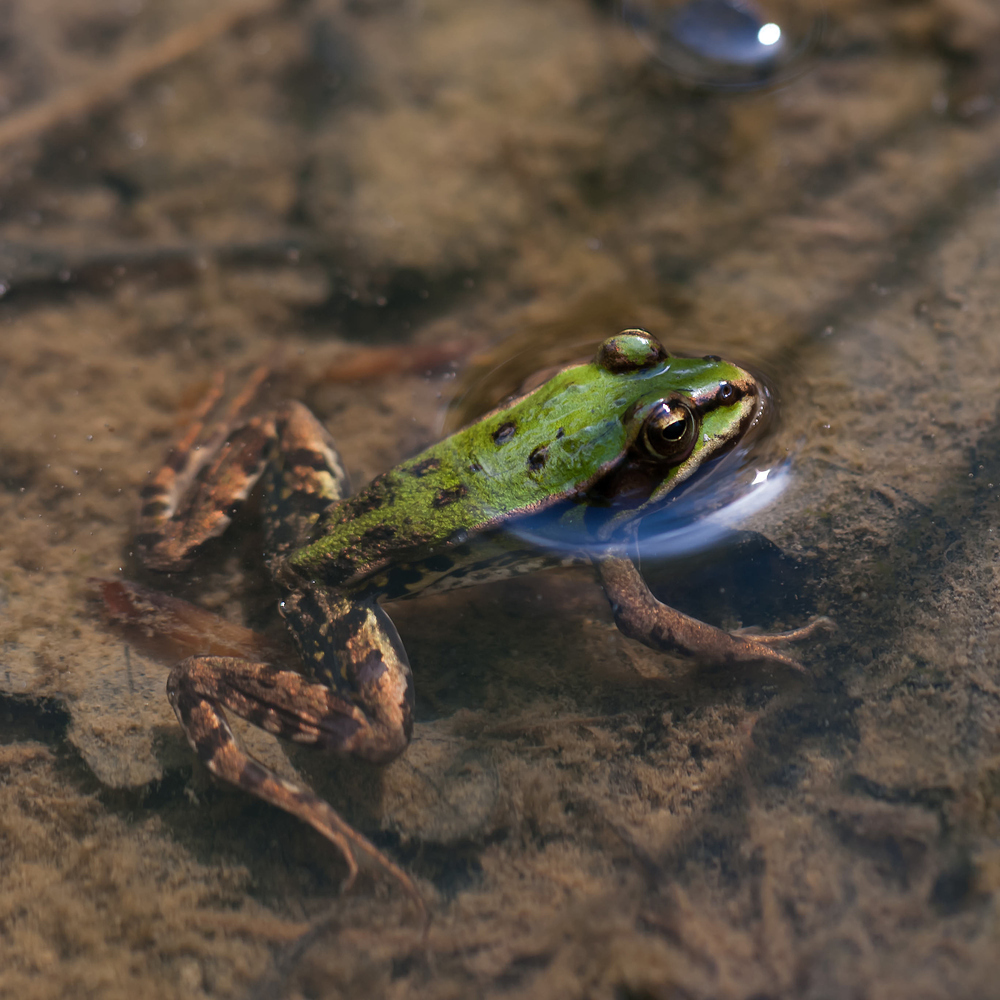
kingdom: Animalia
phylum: Chordata
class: Amphibia
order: Anura
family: Ranidae
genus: Pelophylax
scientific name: Pelophylax
